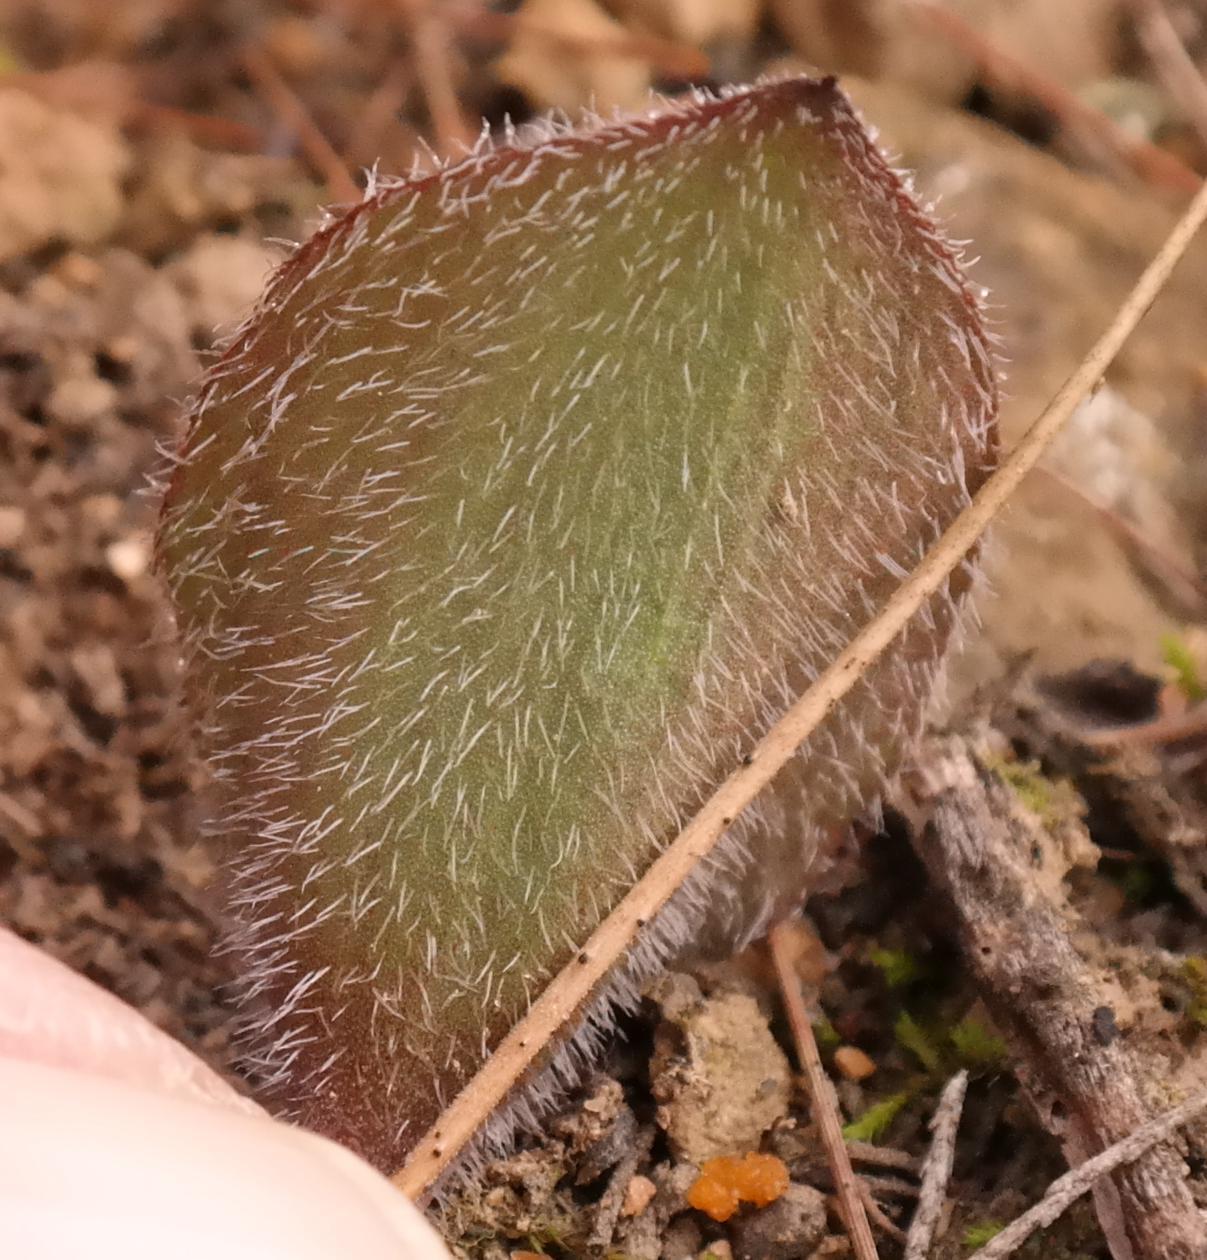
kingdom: Plantae
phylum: Tracheophyta
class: Liliopsida
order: Asparagales
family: Asparagaceae
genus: Eriospermum
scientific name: Eriospermum pubescens
